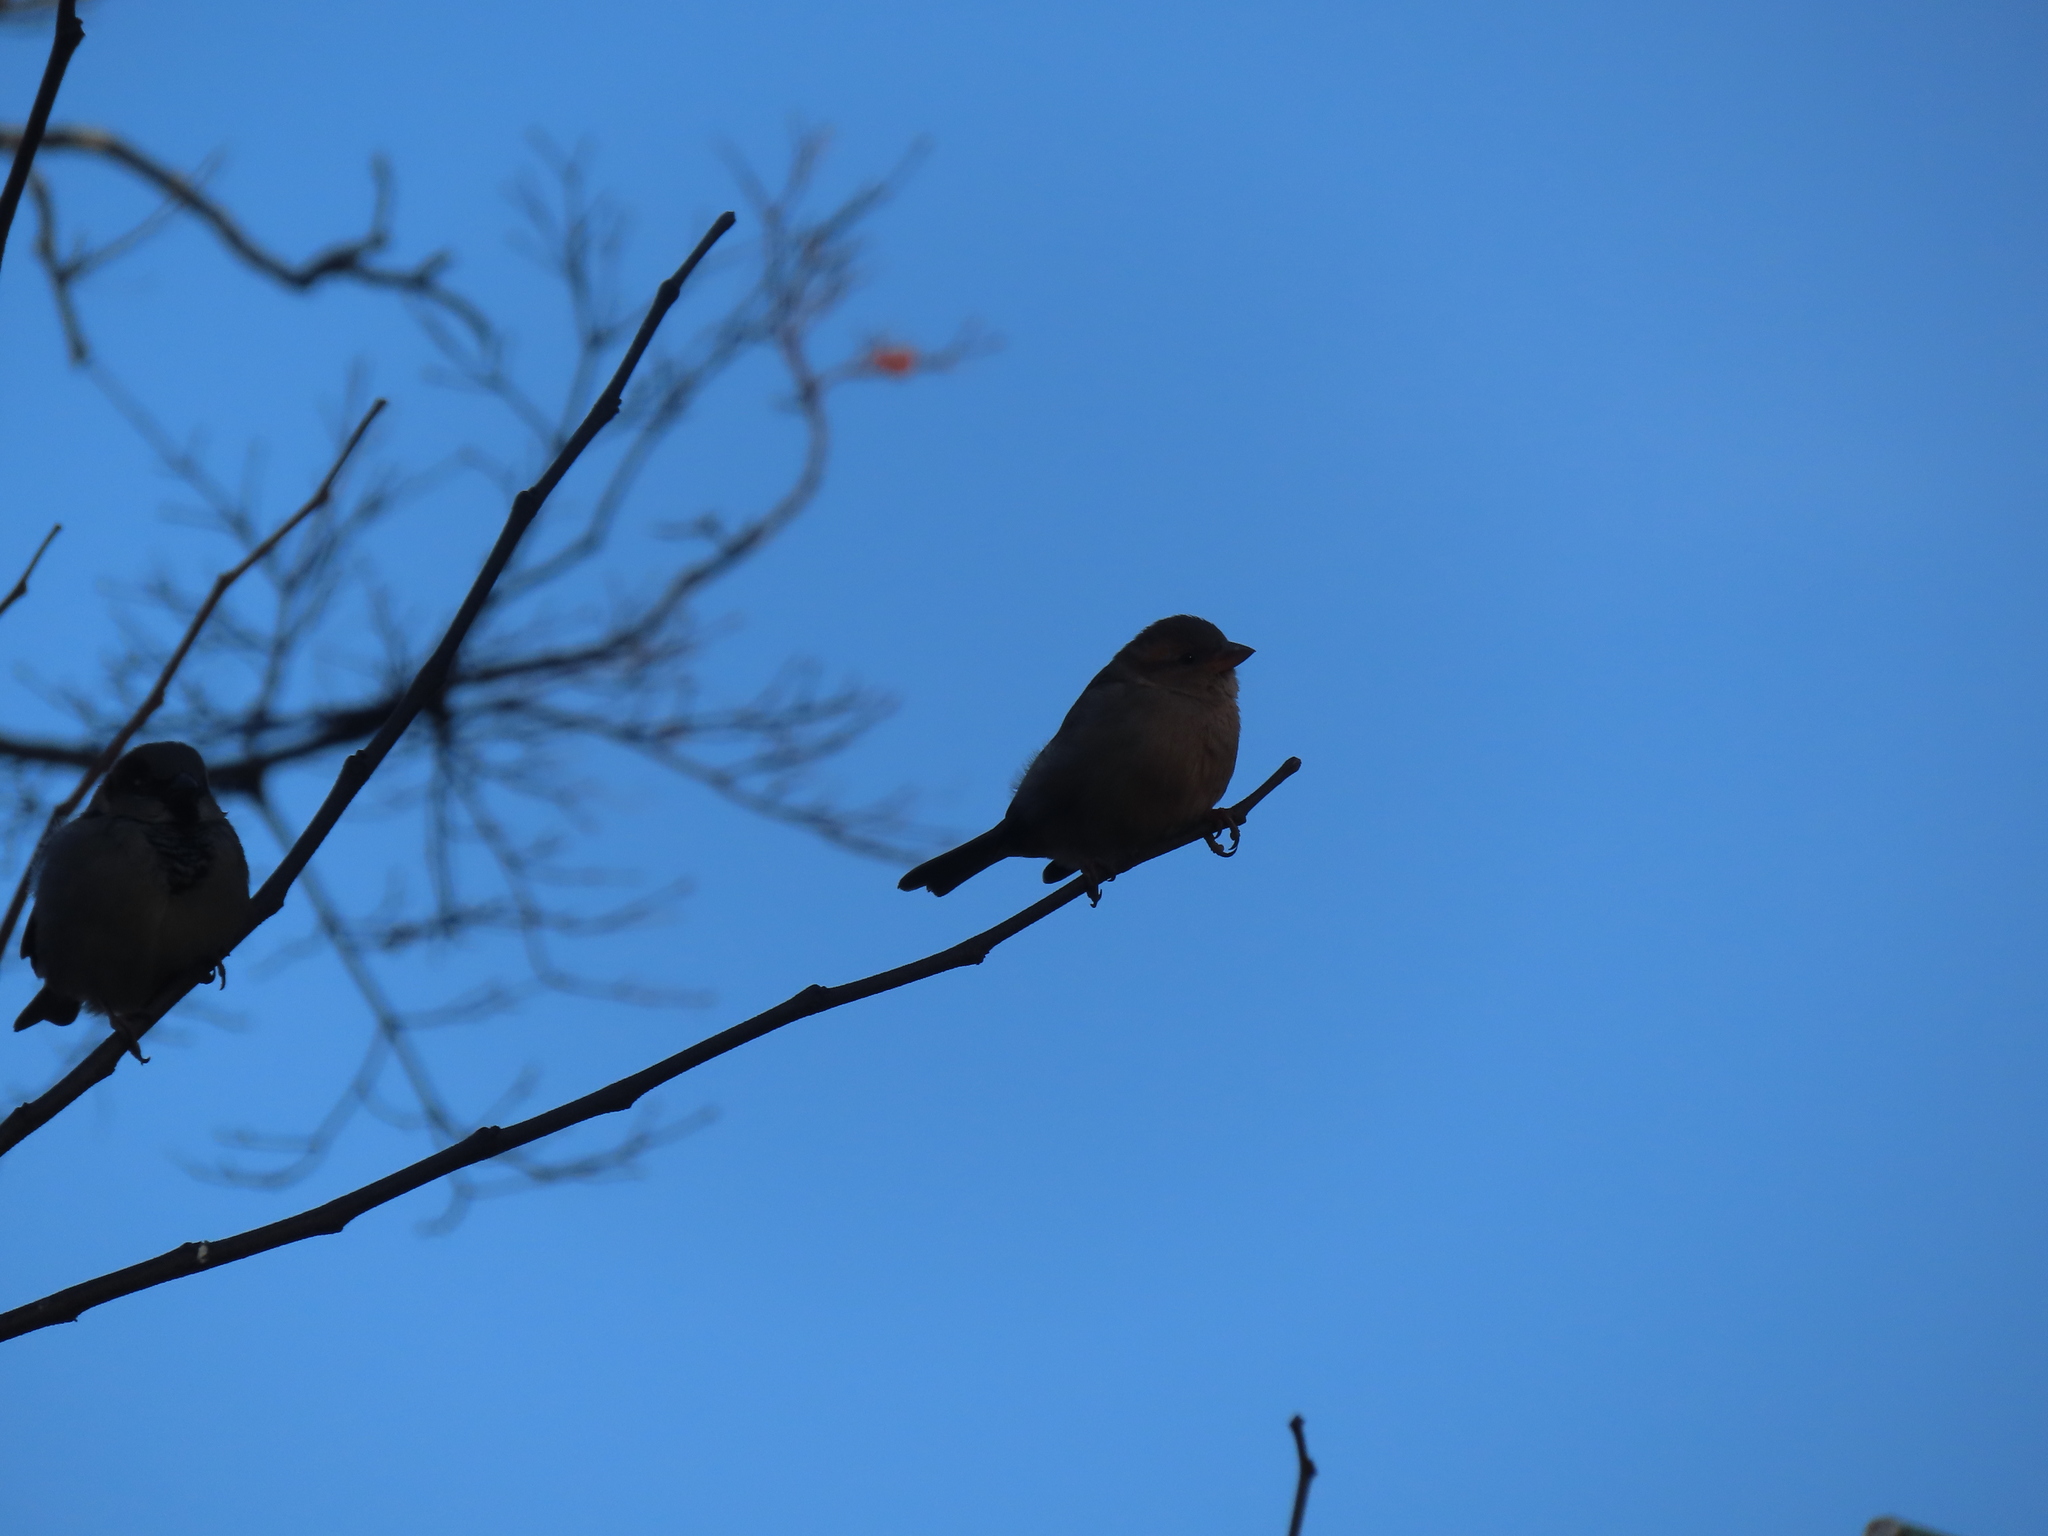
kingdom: Animalia
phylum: Chordata
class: Aves
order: Passeriformes
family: Passeridae
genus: Passer
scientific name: Passer domesticus
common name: House sparrow
